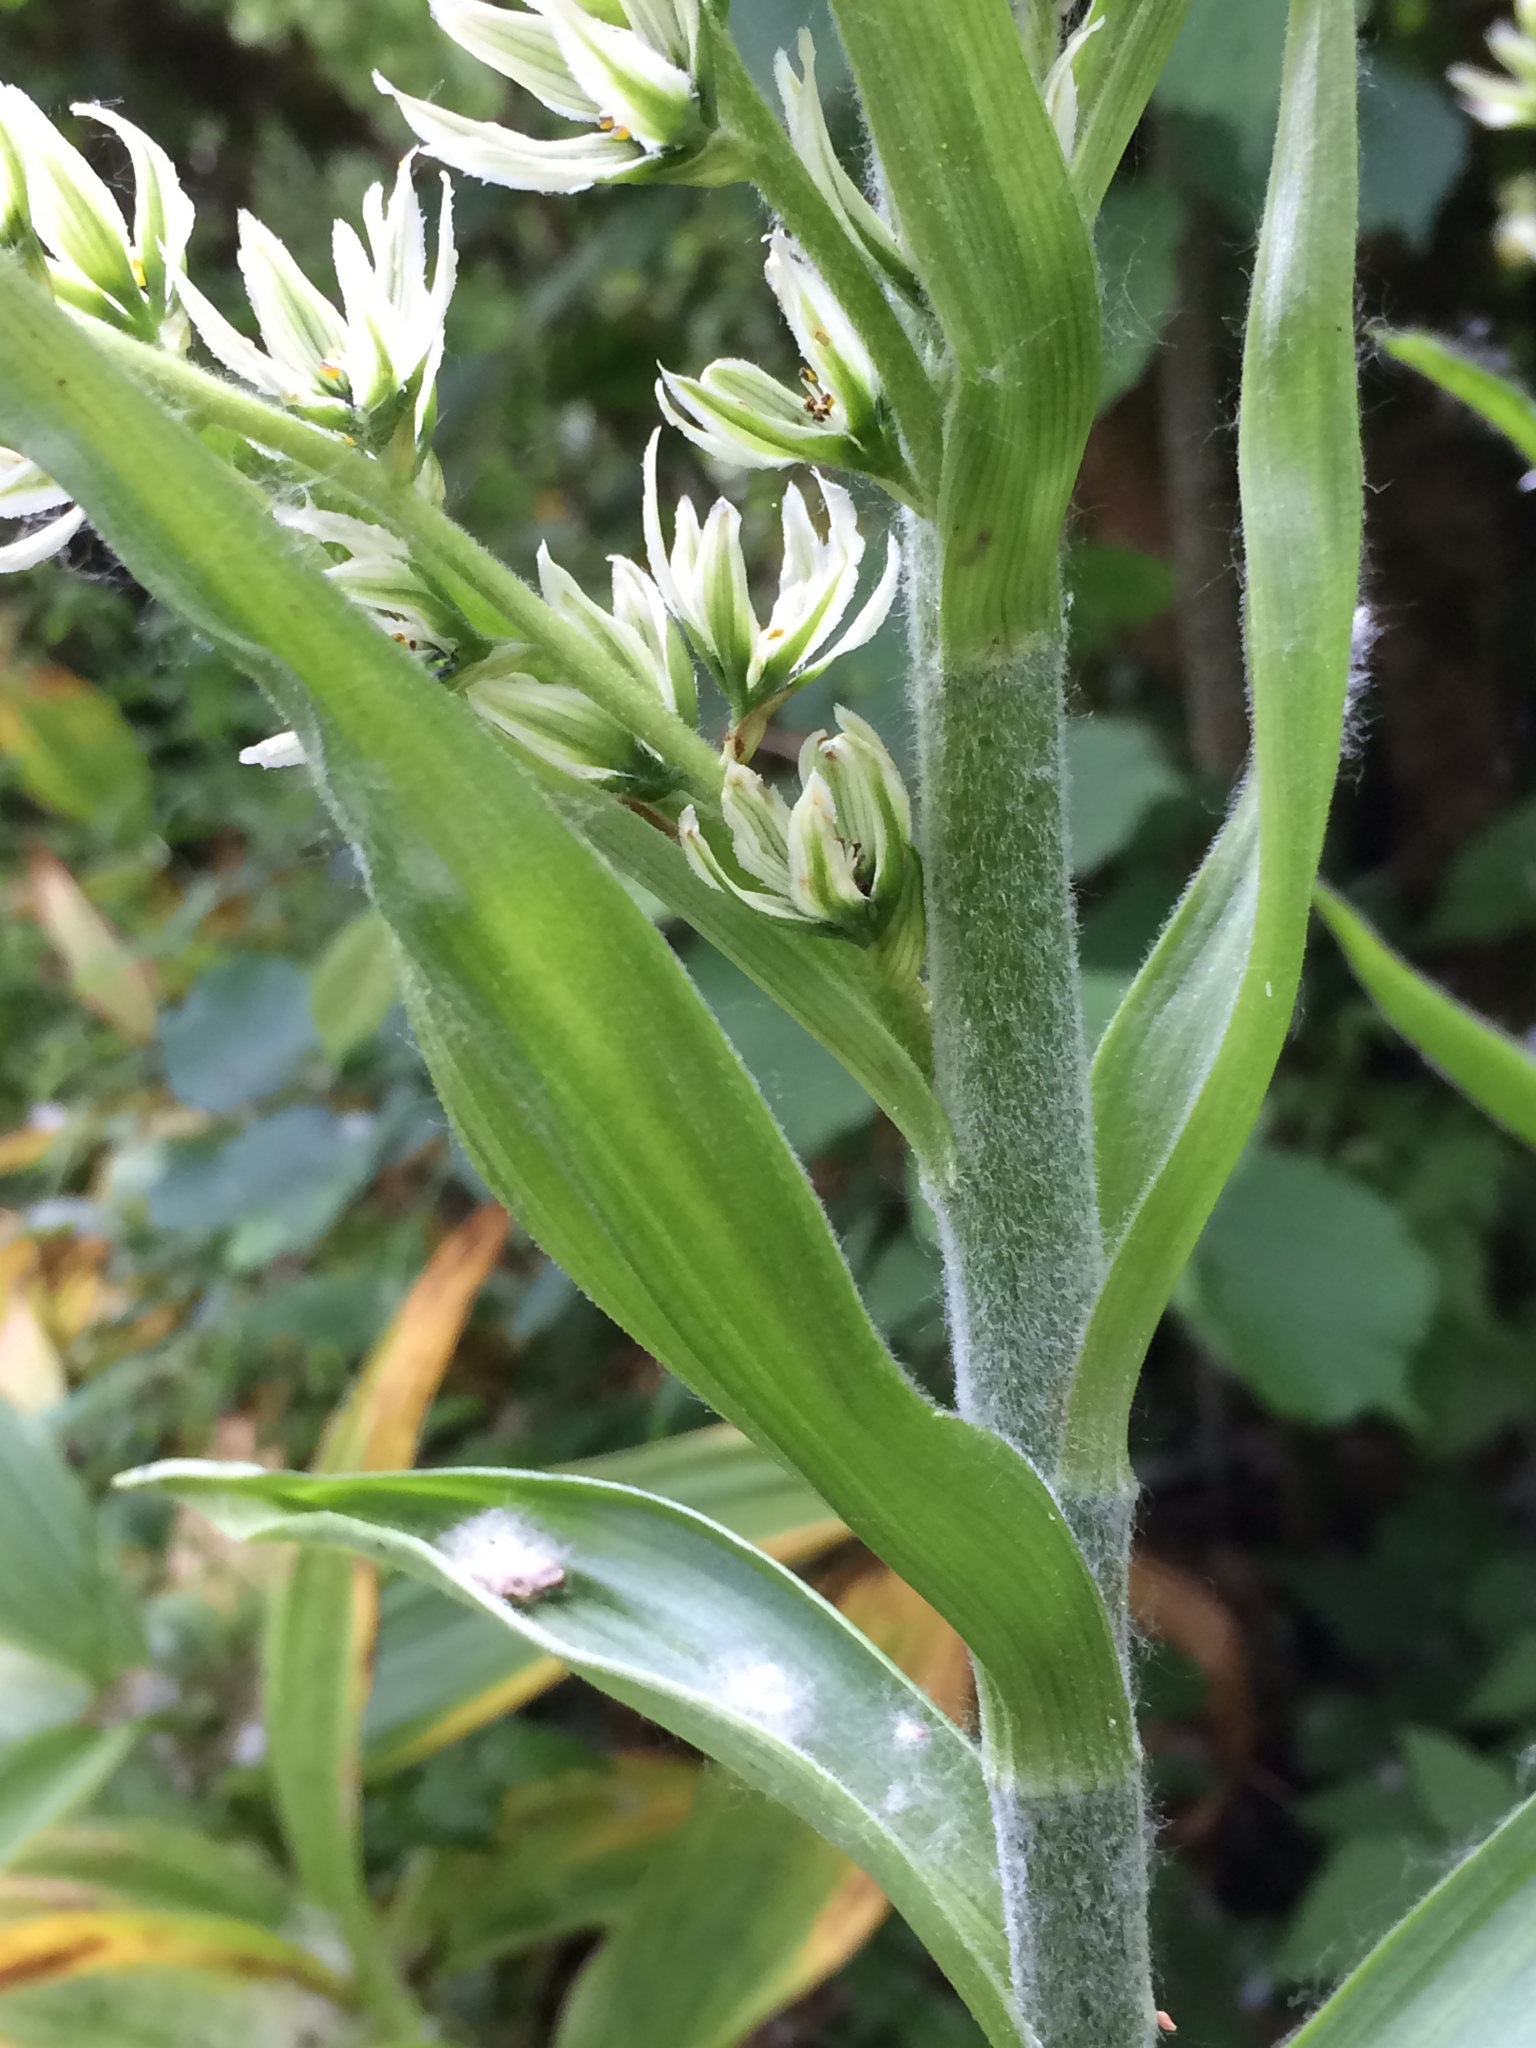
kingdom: Plantae
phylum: Tracheophyta
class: Liliopsida
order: Liliales
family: Melanthiaceae
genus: Veratrum
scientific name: Veratrum californicum
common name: California veratrum
